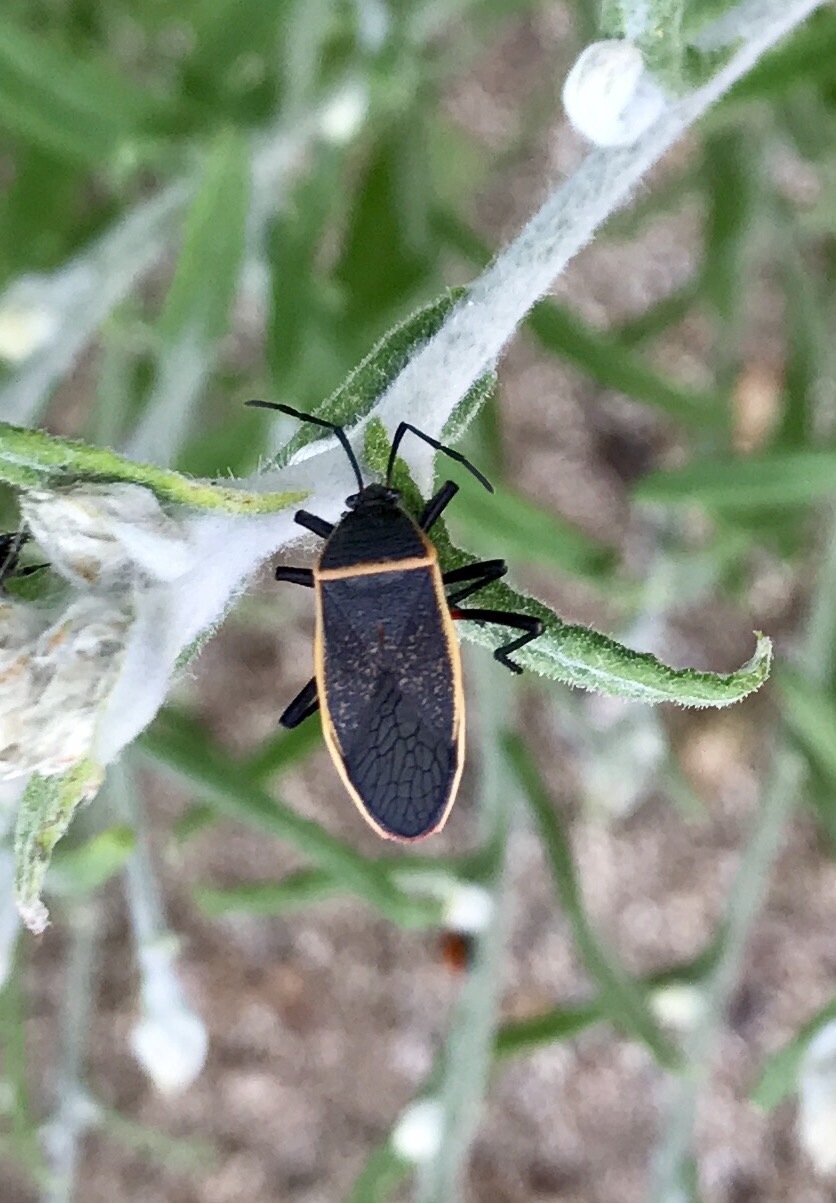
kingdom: Animalia
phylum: Arthropoda
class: Insecta
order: Hemiptera
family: Largidae
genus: Largus
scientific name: Largus succinctus
